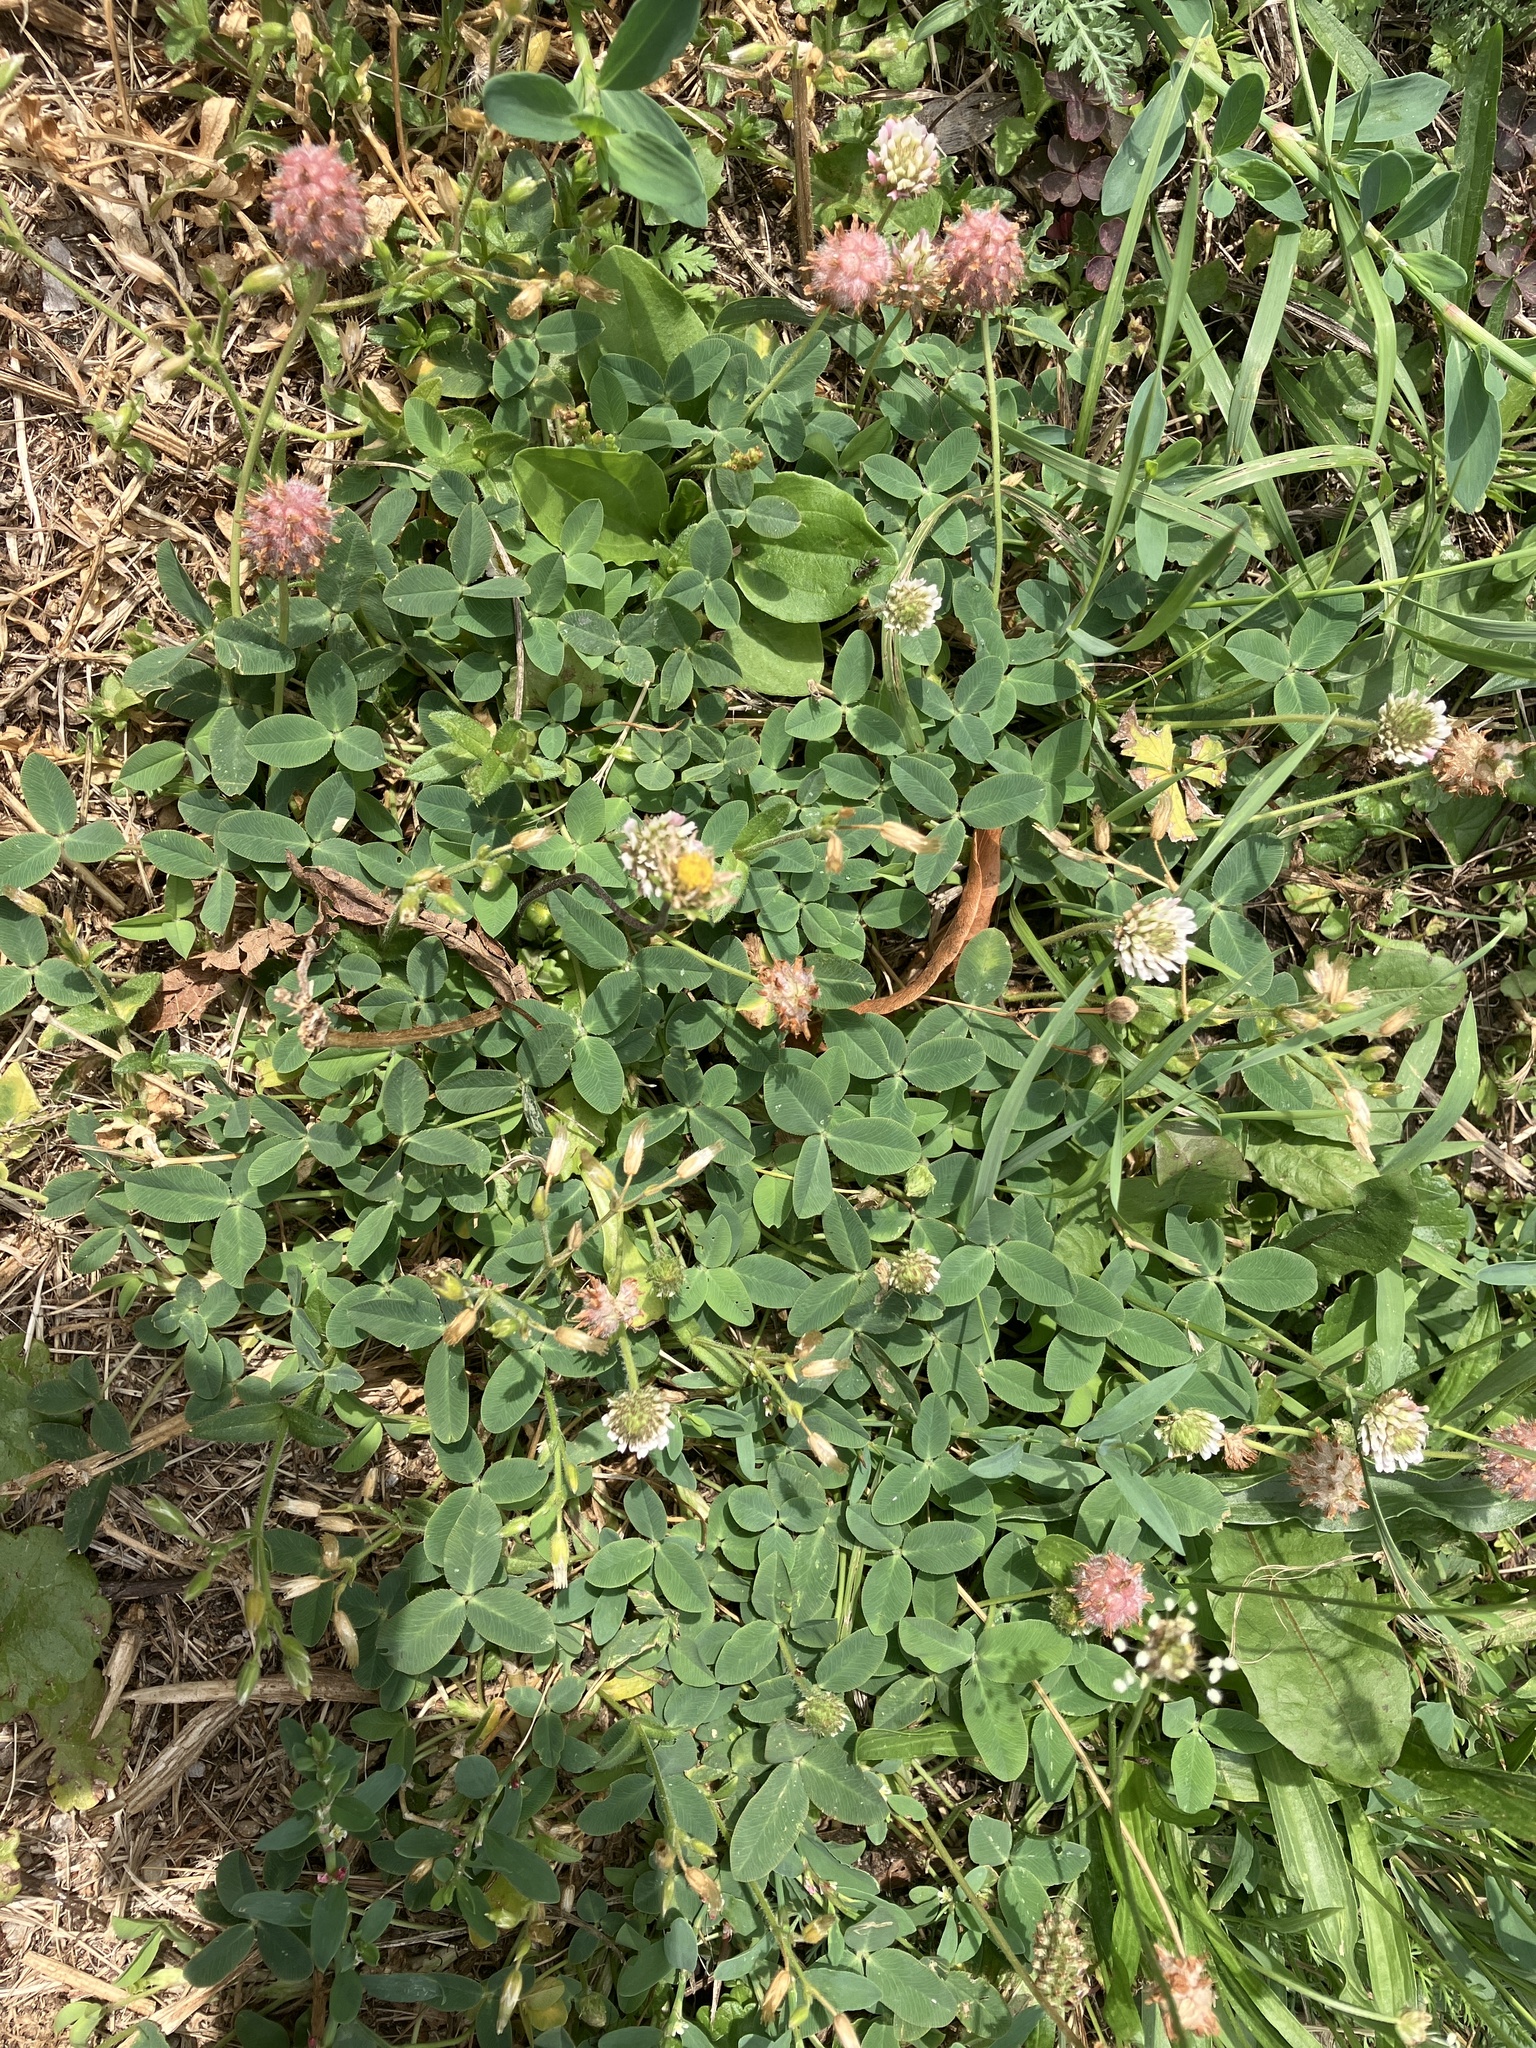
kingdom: Plantae
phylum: Tracheophyta
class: Magnoliopsida
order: Fabales
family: Fabaceae
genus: Trifolium
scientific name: Trifolium fragiferum
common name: Strawberry clover
